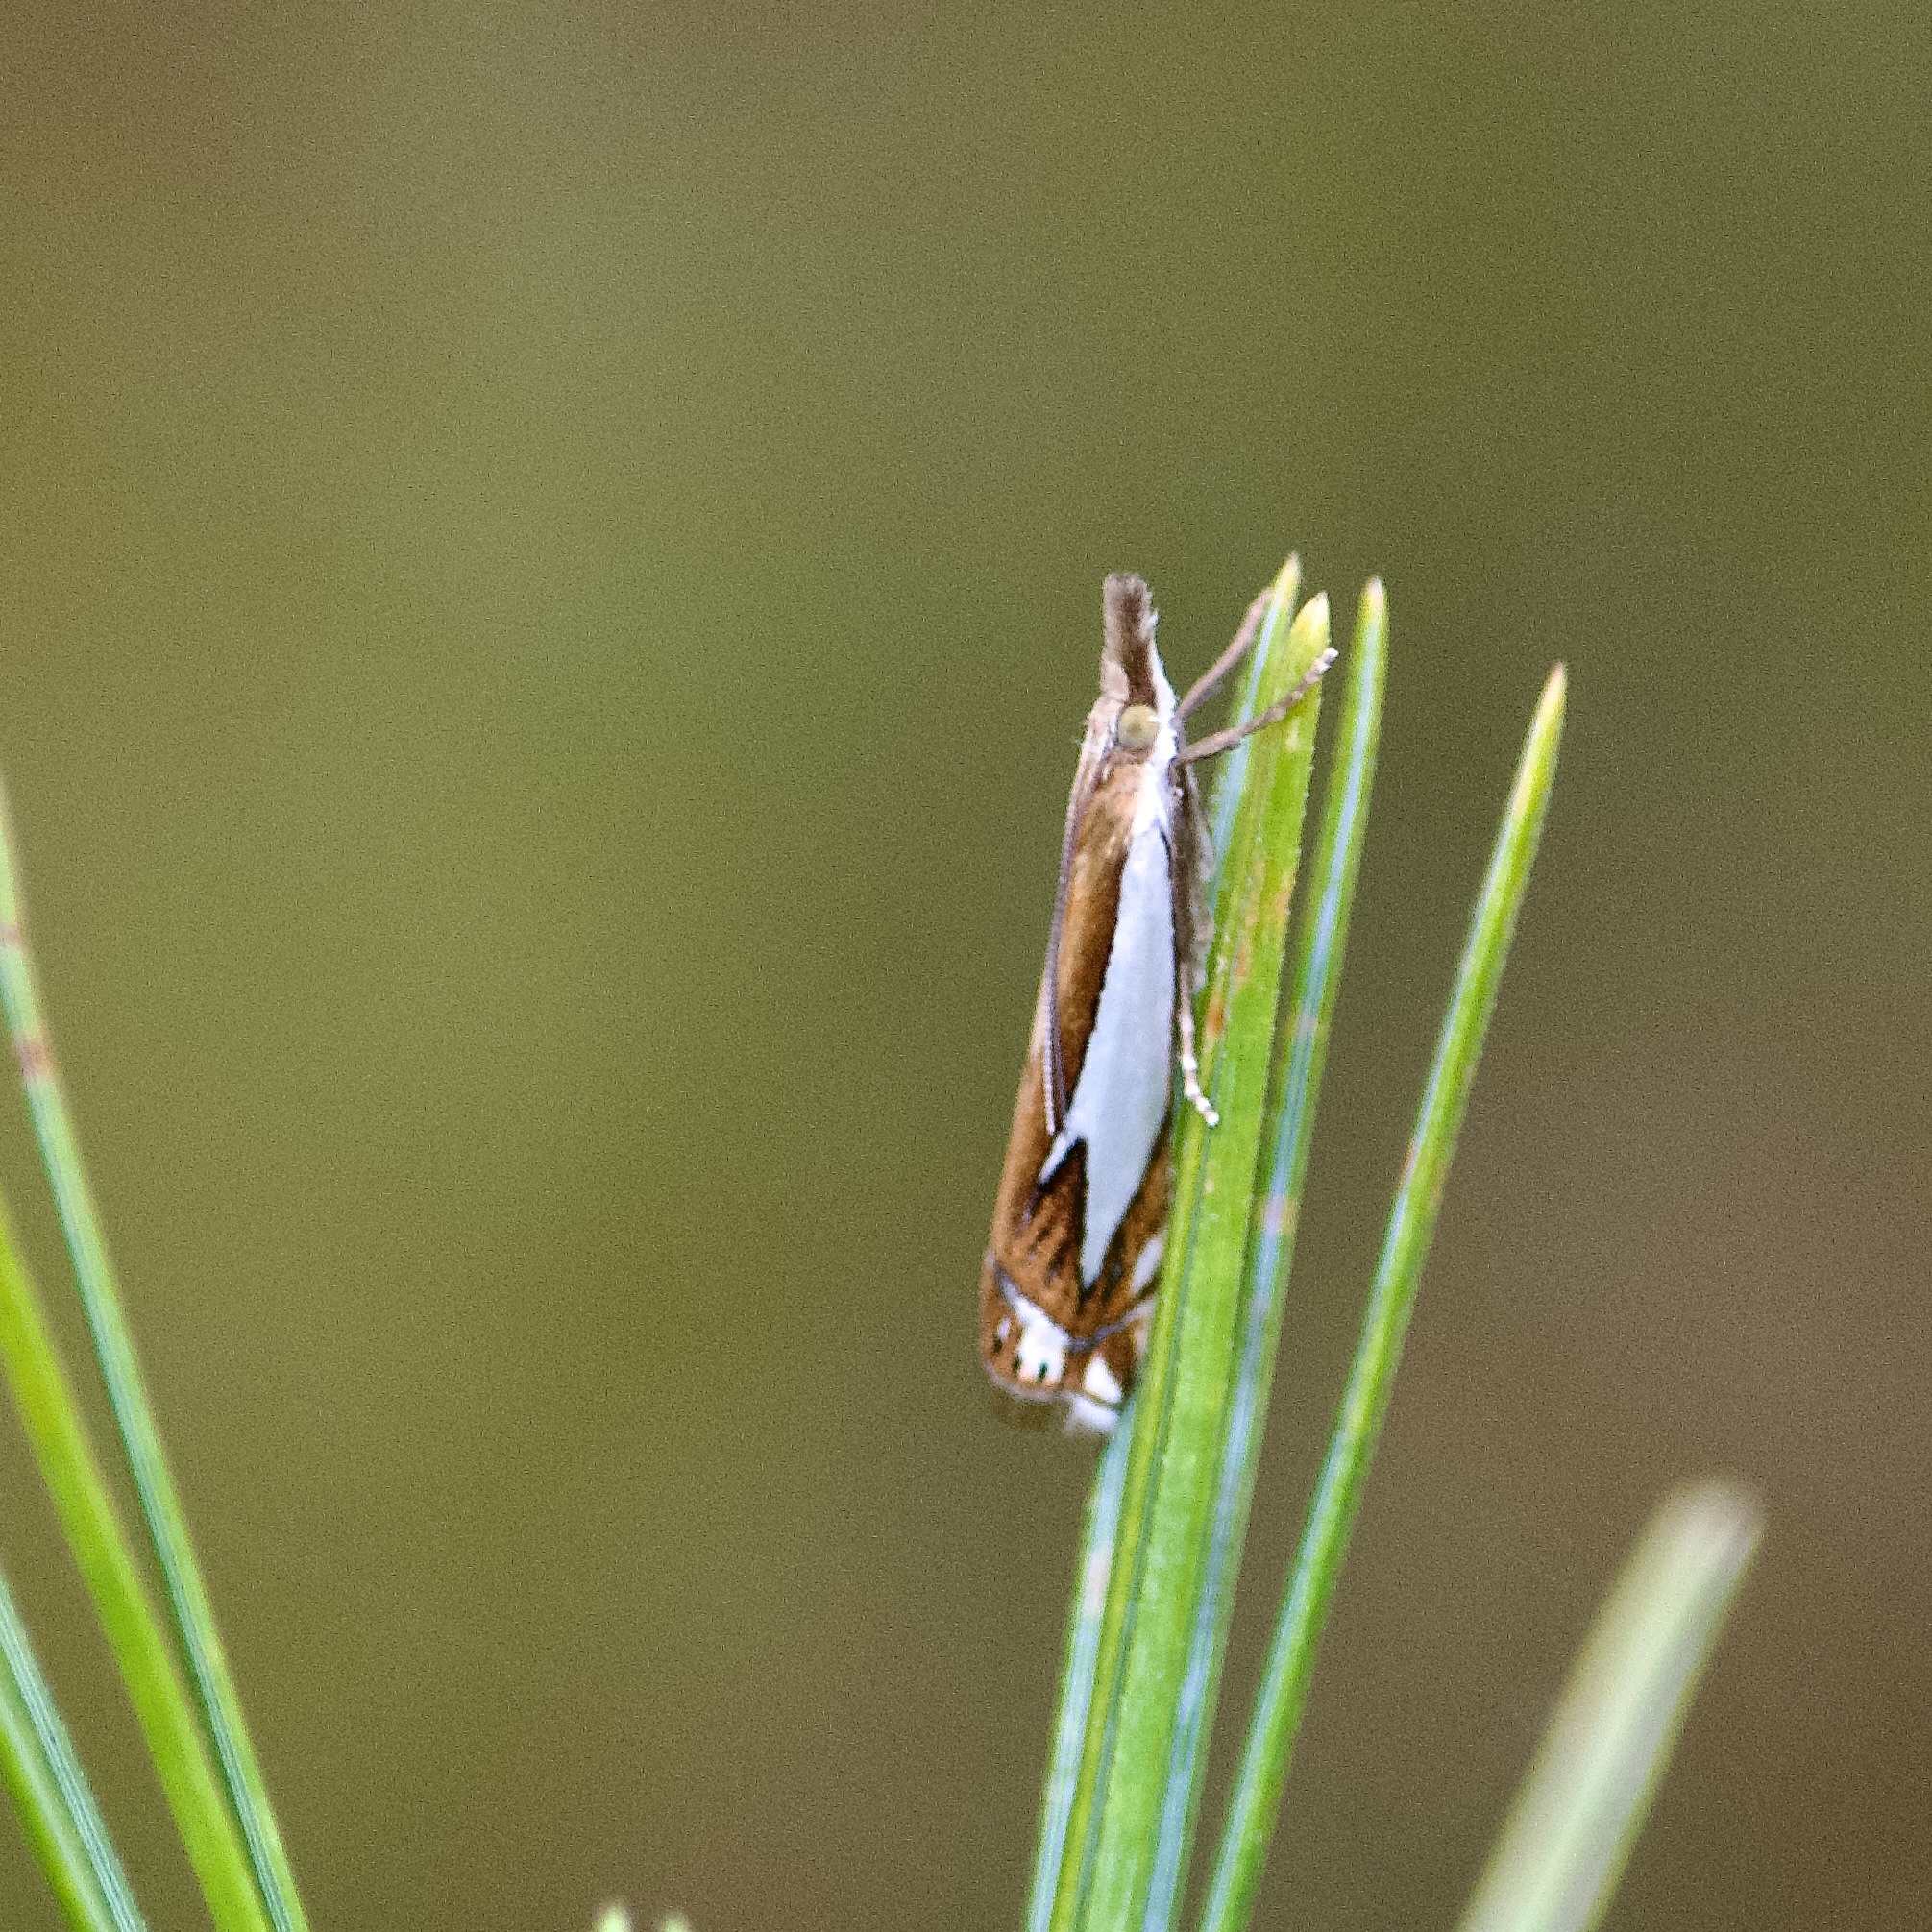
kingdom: Animalia
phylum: Arthropoda
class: Insecta
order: Lepidoptera
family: Crambidae
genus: Crambus
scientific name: Crambus bidens
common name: Forked grass-veneer
